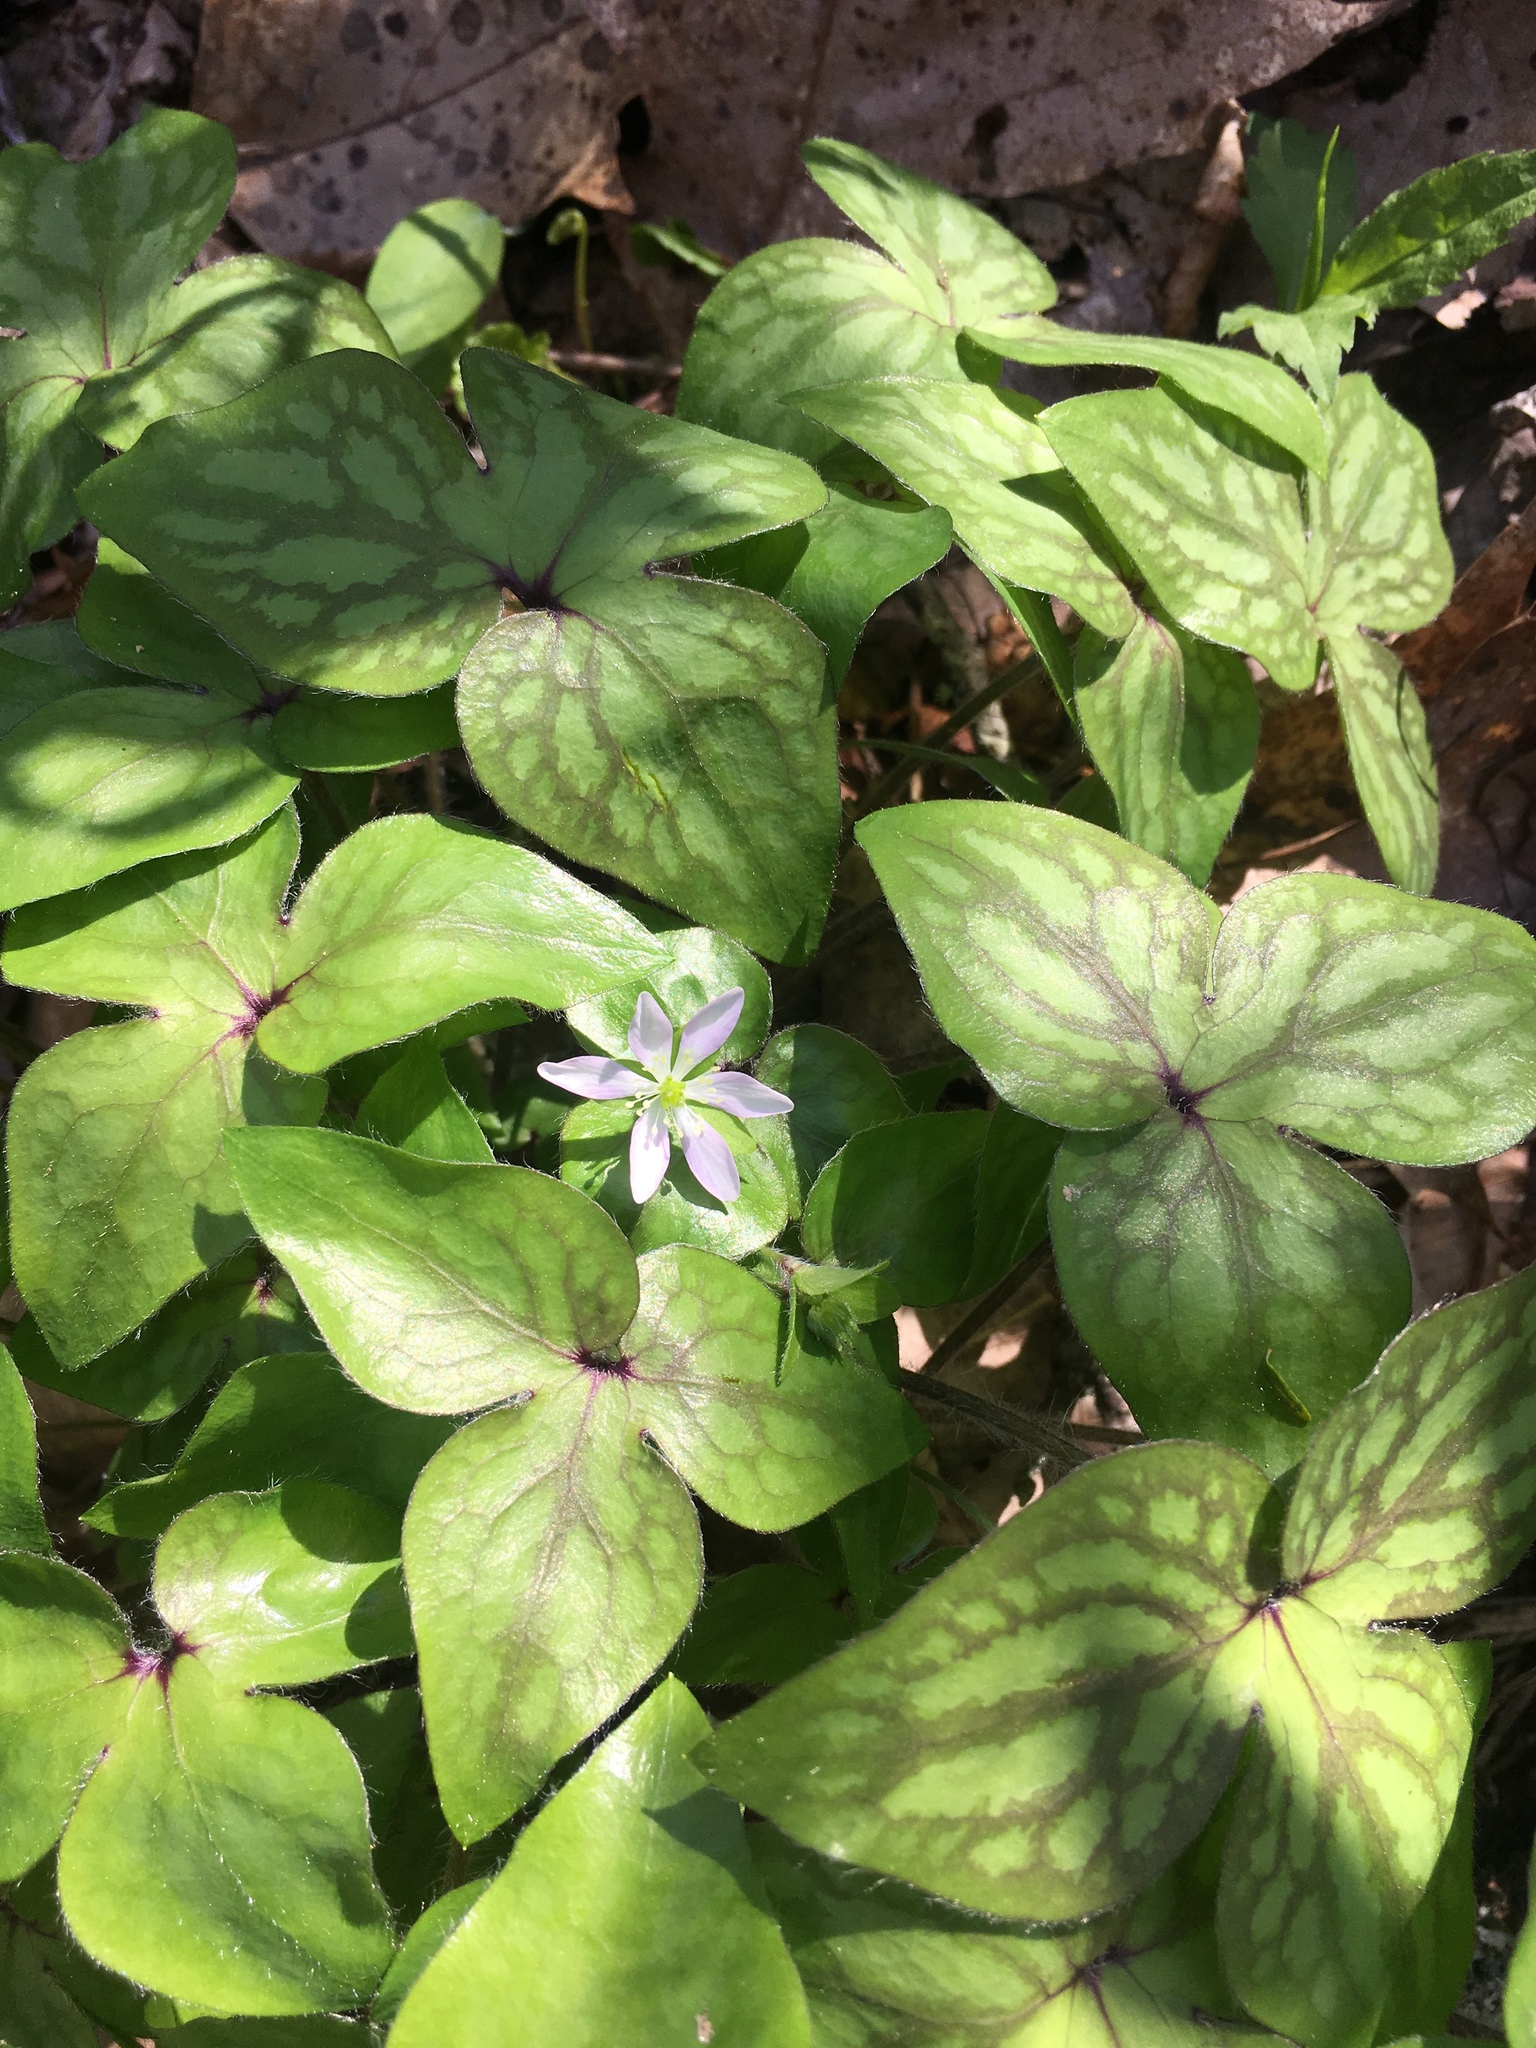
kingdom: Plantae
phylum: Tracheophyta
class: Magnoliopsida
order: Ranunculales
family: Ranunculaceae
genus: Hepatica
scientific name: Hepatica acutiloba
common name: Sharp-lobed hepatica
